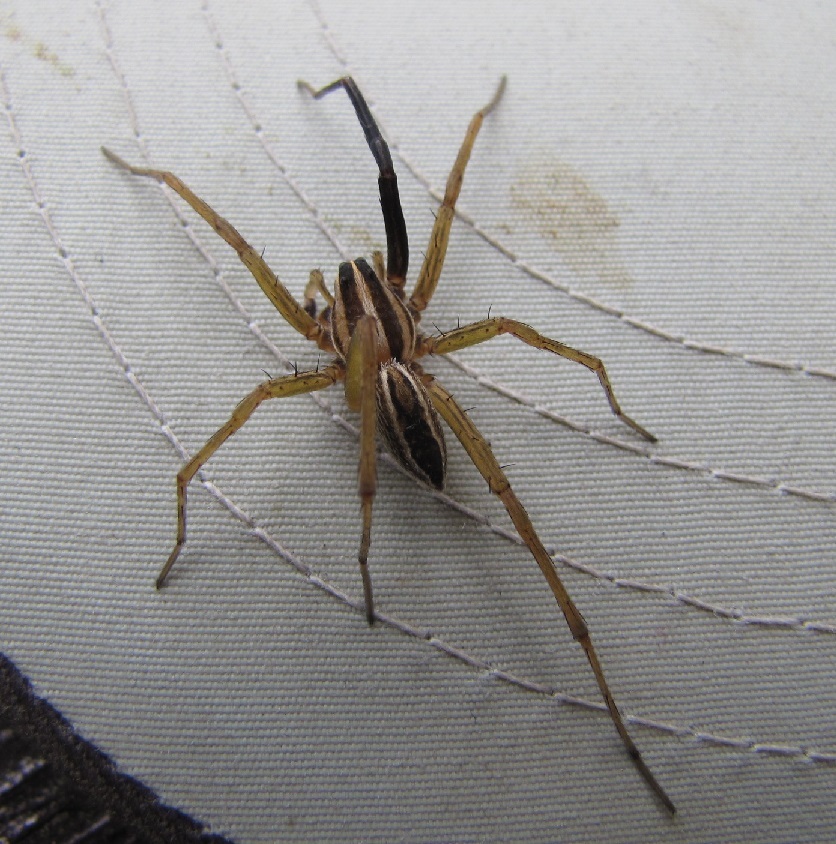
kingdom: Animalia
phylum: Arthropoda
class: Arachnida
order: Araneae
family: Lycosidae
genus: Rabidosa
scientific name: Rabidosa rabida
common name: Rabid wolf spider
